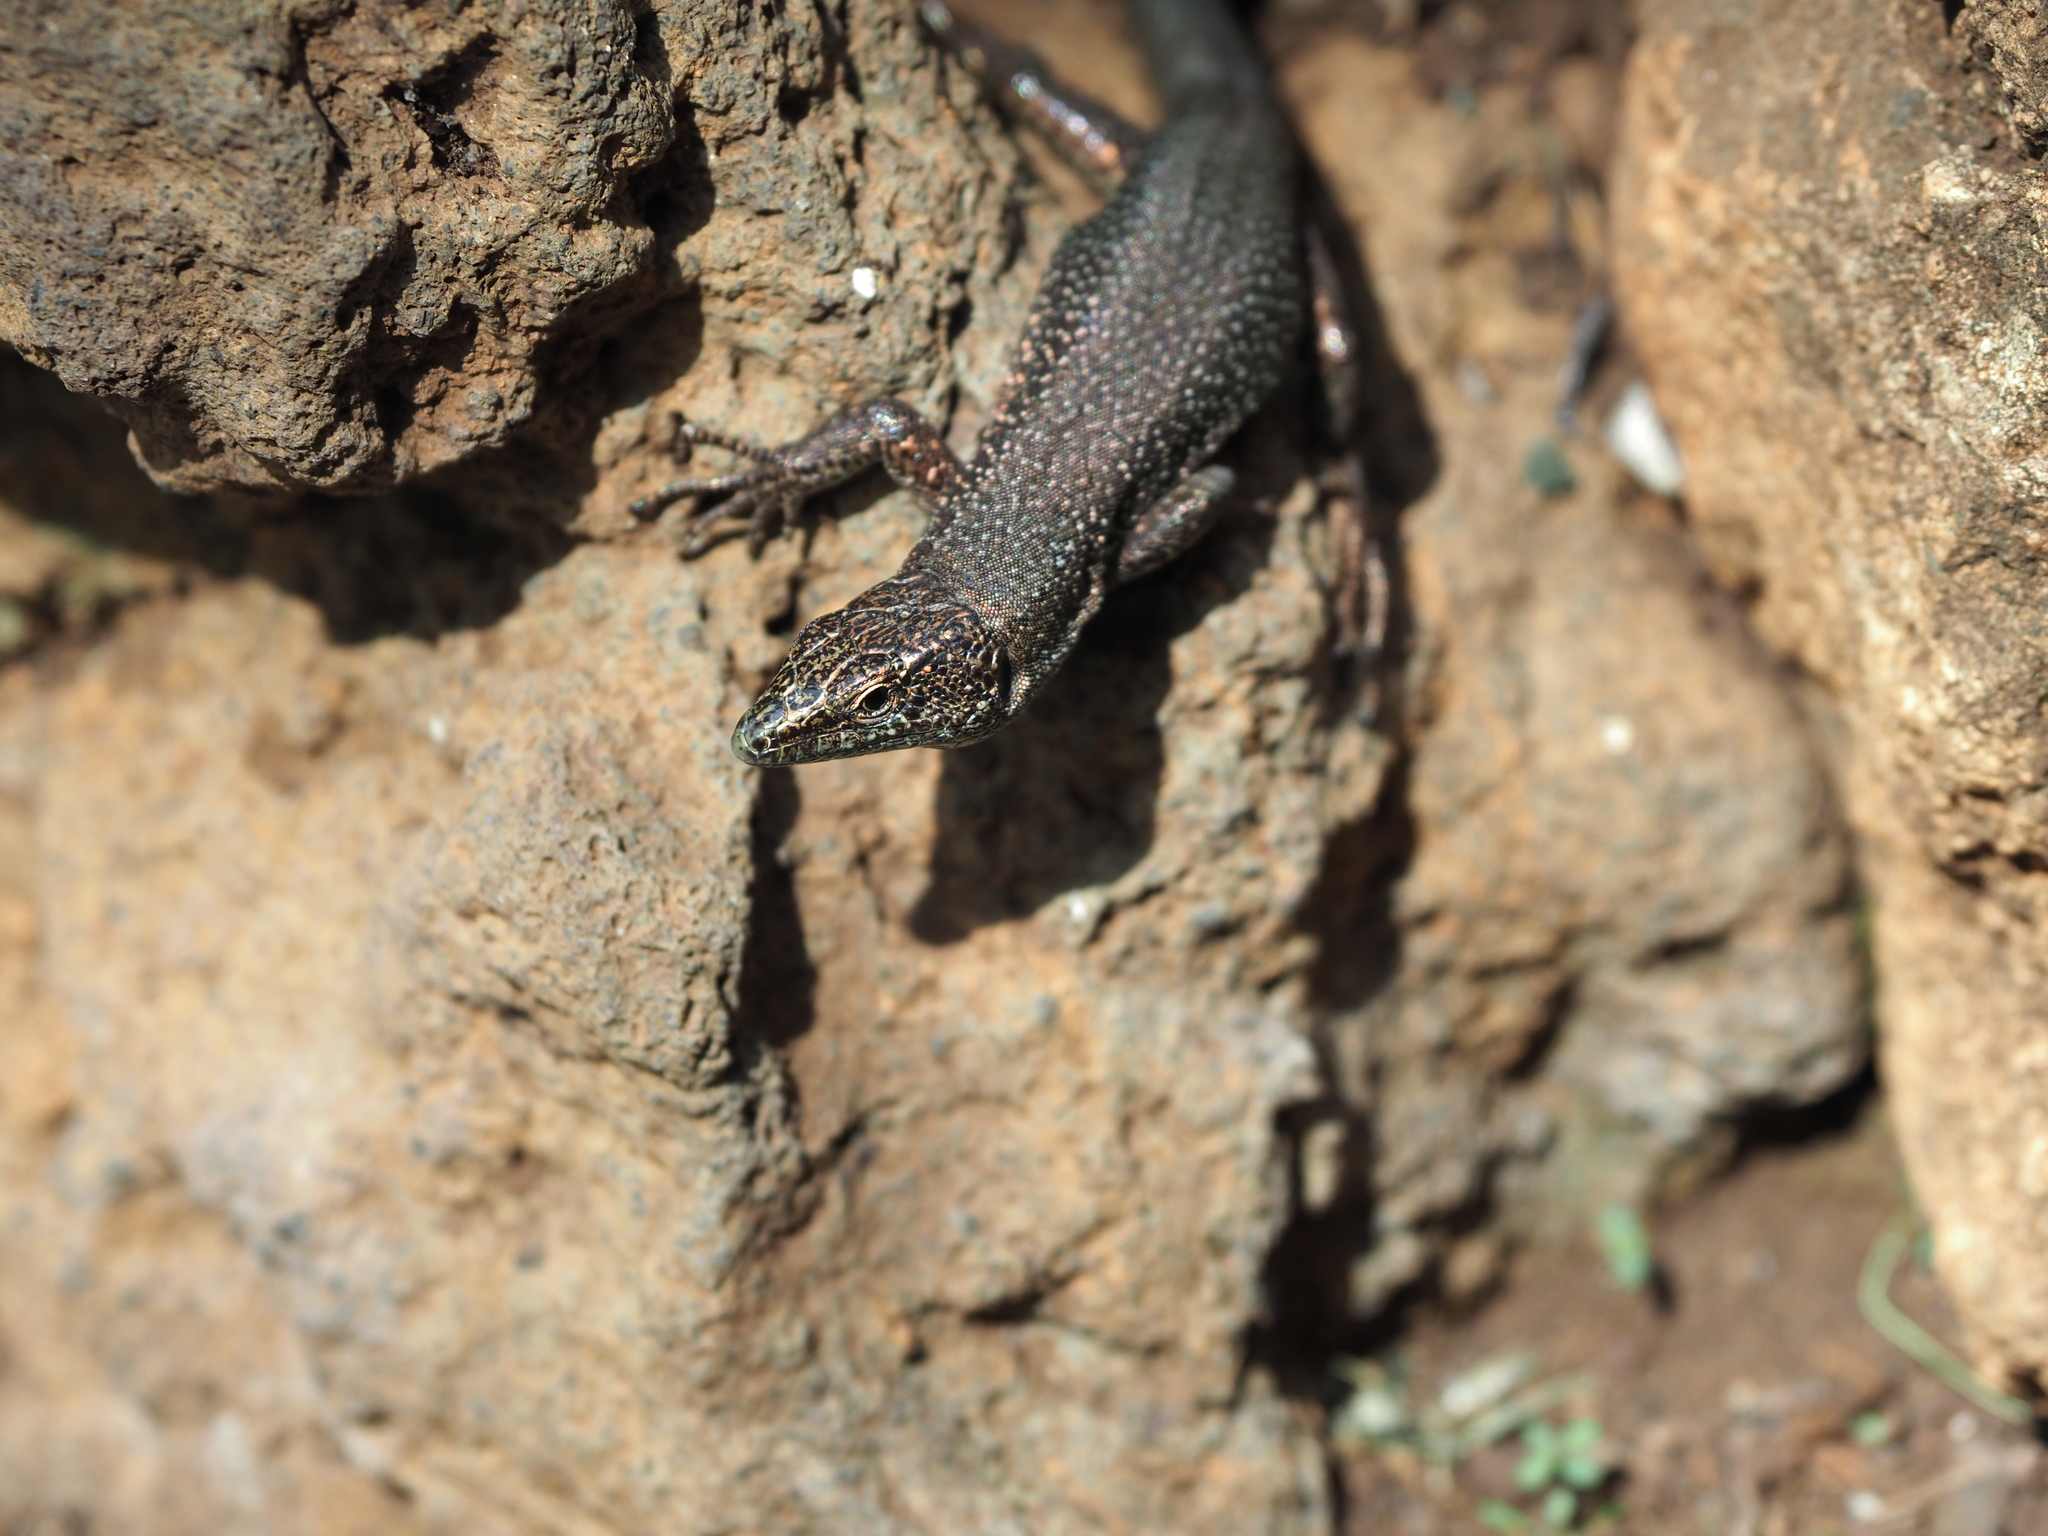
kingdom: Animalia
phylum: Chordata
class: Squamata
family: Lacertidae
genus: Teira
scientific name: Teira dugesii
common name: Madeira lizard
